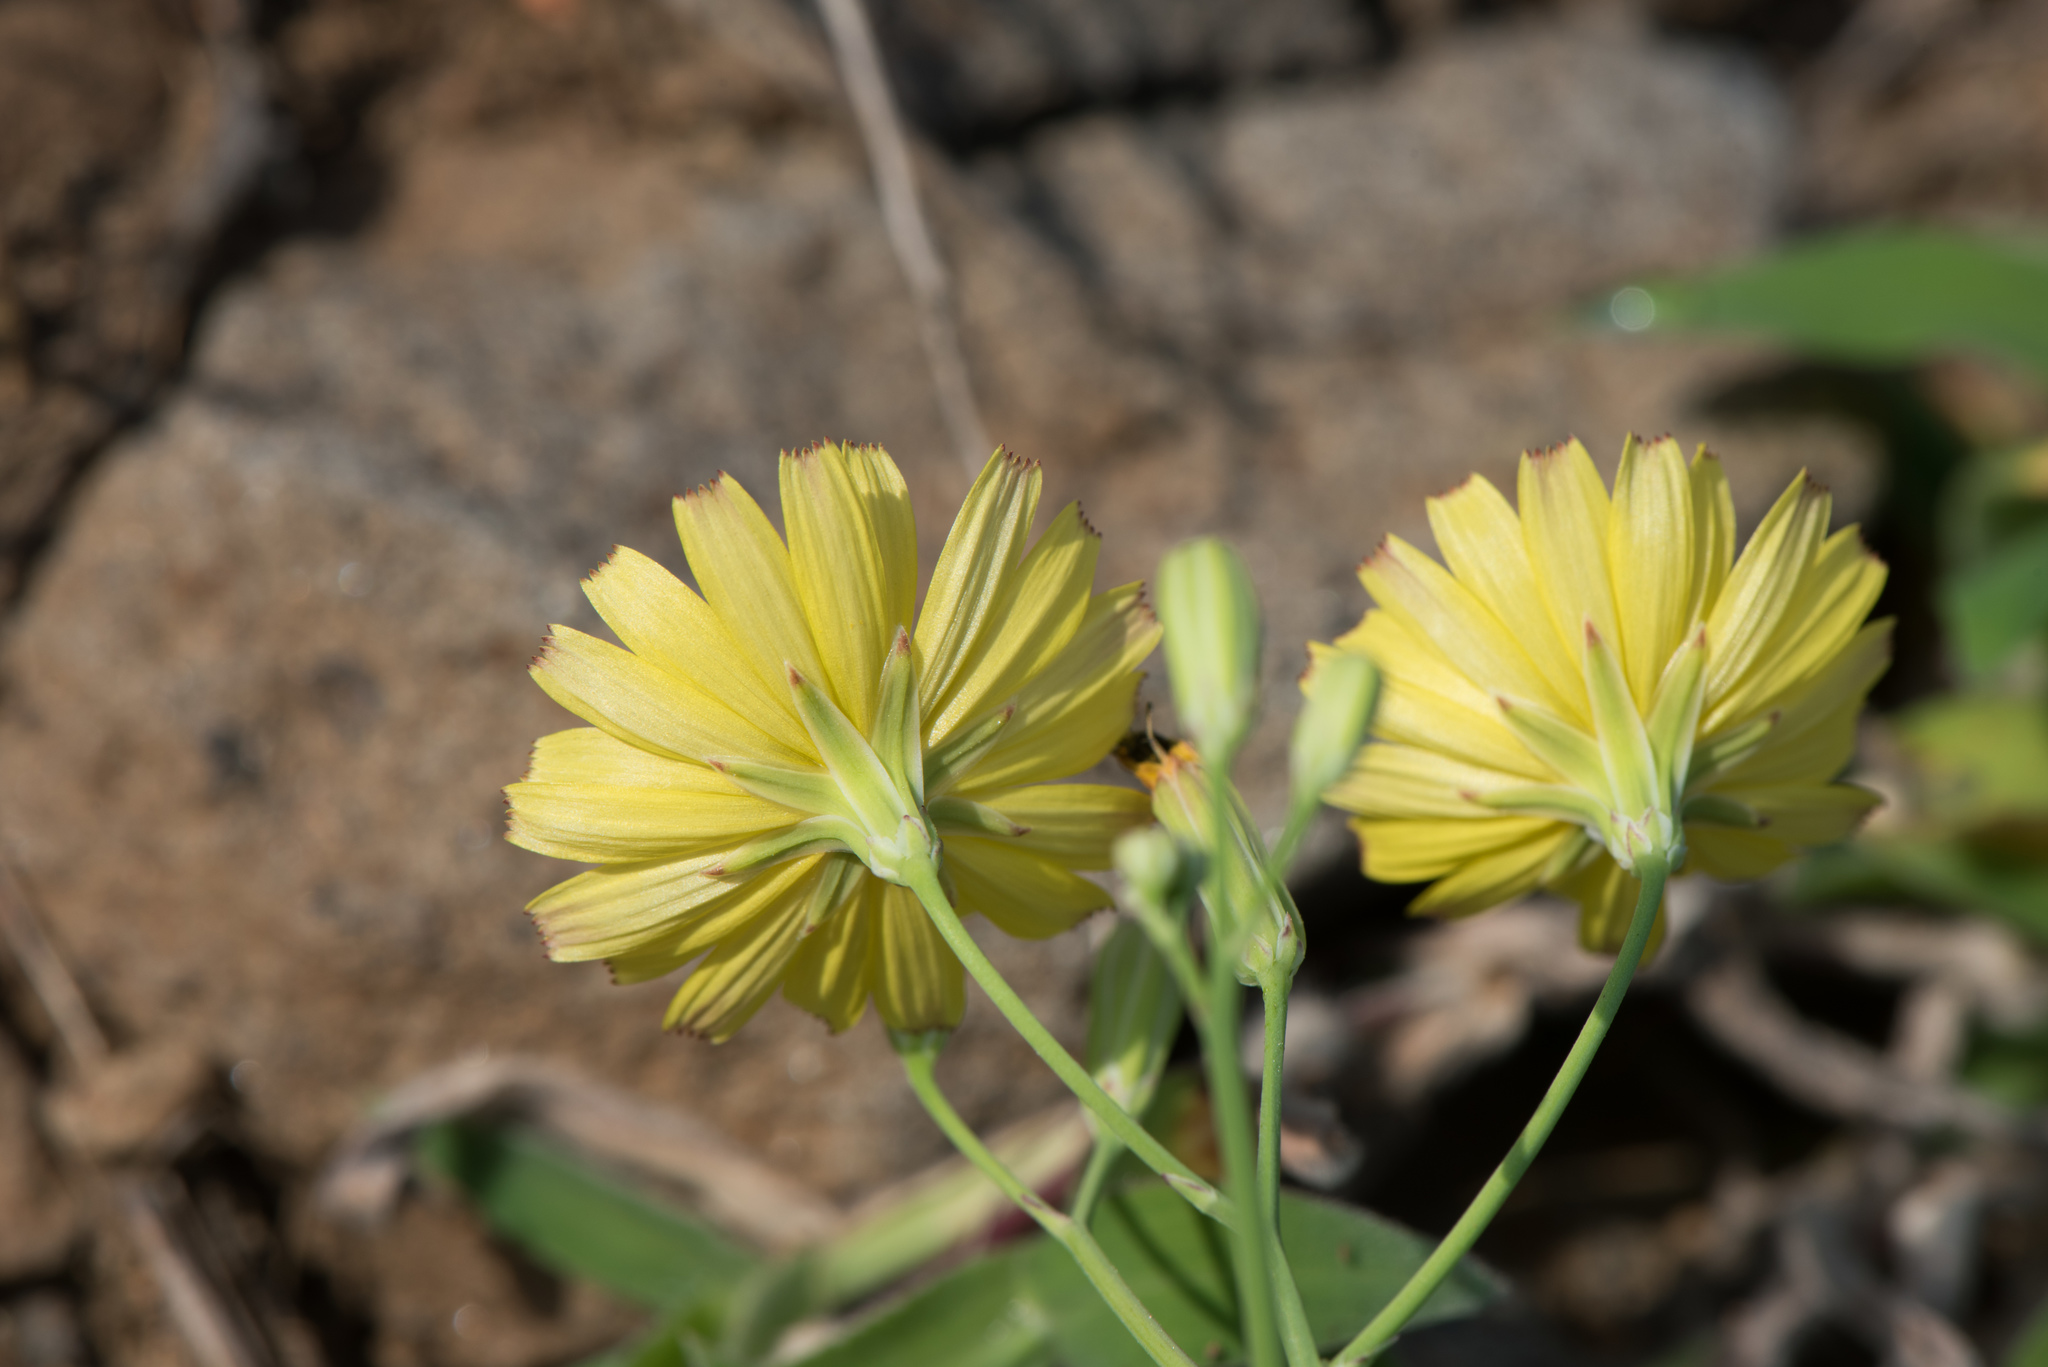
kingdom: Plantae
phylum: Tracheophyta
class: Magnoliopsida
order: Asterales
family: Asteraceae
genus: Ixeris
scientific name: Ixeris japonica
